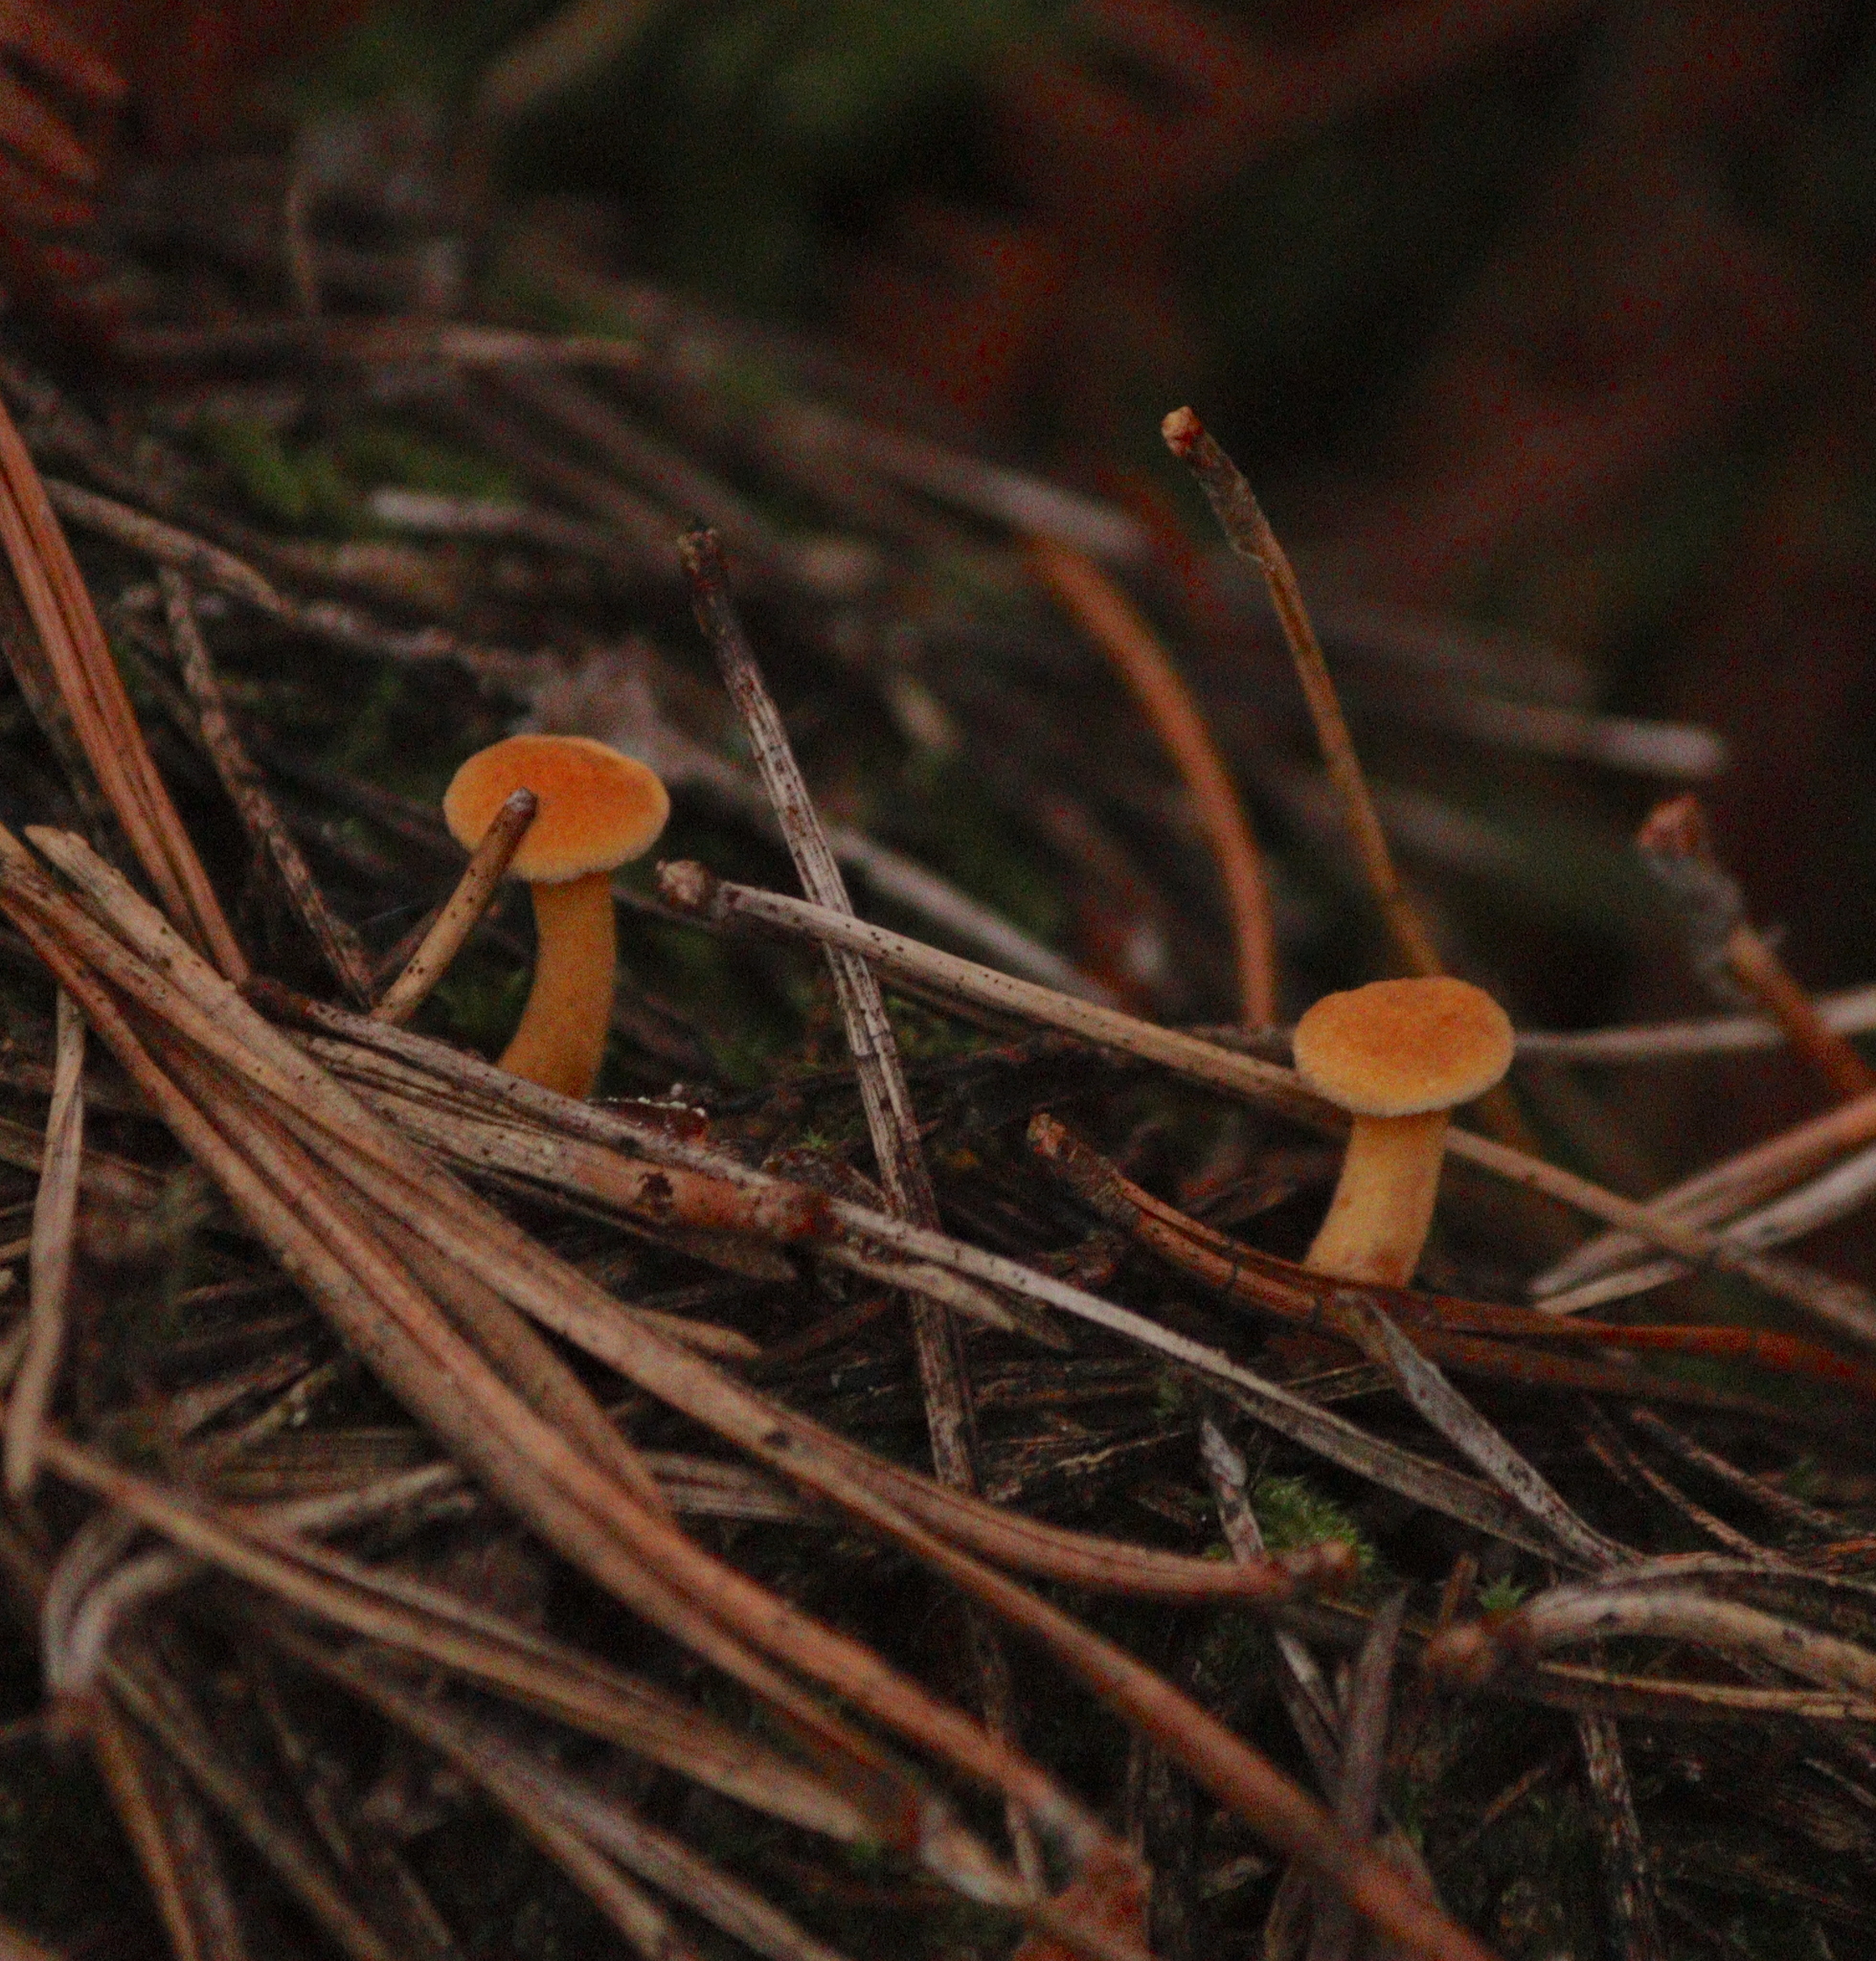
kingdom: Fungi
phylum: Basidiomycota
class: Agaricomycetes
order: Boletales
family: Hygrophoropsidaceae
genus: Hygrophoropsis
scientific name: Hygrophoropsis aurantiaca
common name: False chanterelle
